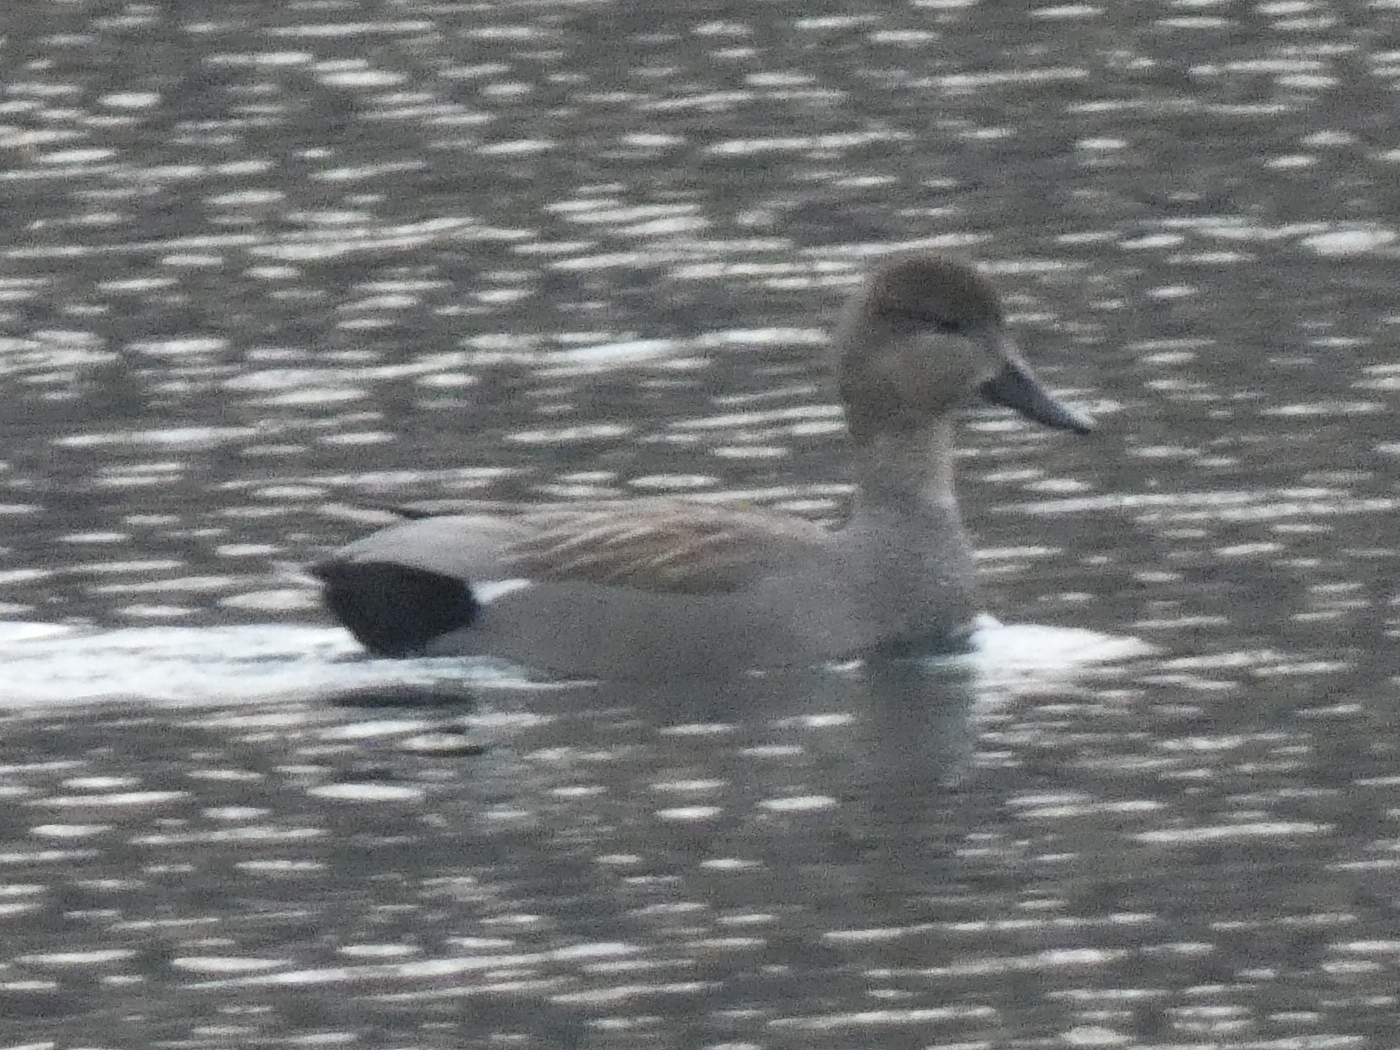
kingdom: Animalia
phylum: Chordata
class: Aves
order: Anseriformes
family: Anatidae
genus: Mareca
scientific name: Mareca strepera
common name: Gadwall
